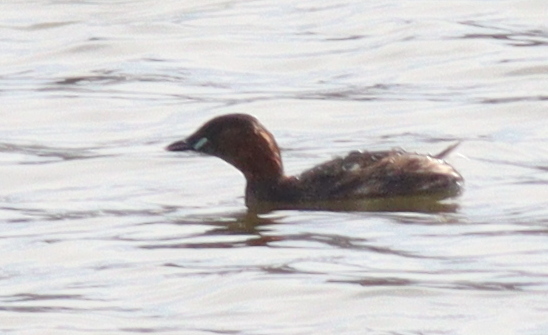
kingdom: Animalia
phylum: Chordata
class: Aves
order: Podicipediformes
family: Podicipedidae
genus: Tachybaptus
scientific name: Tachybaptus ruficollis
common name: Little grebe
